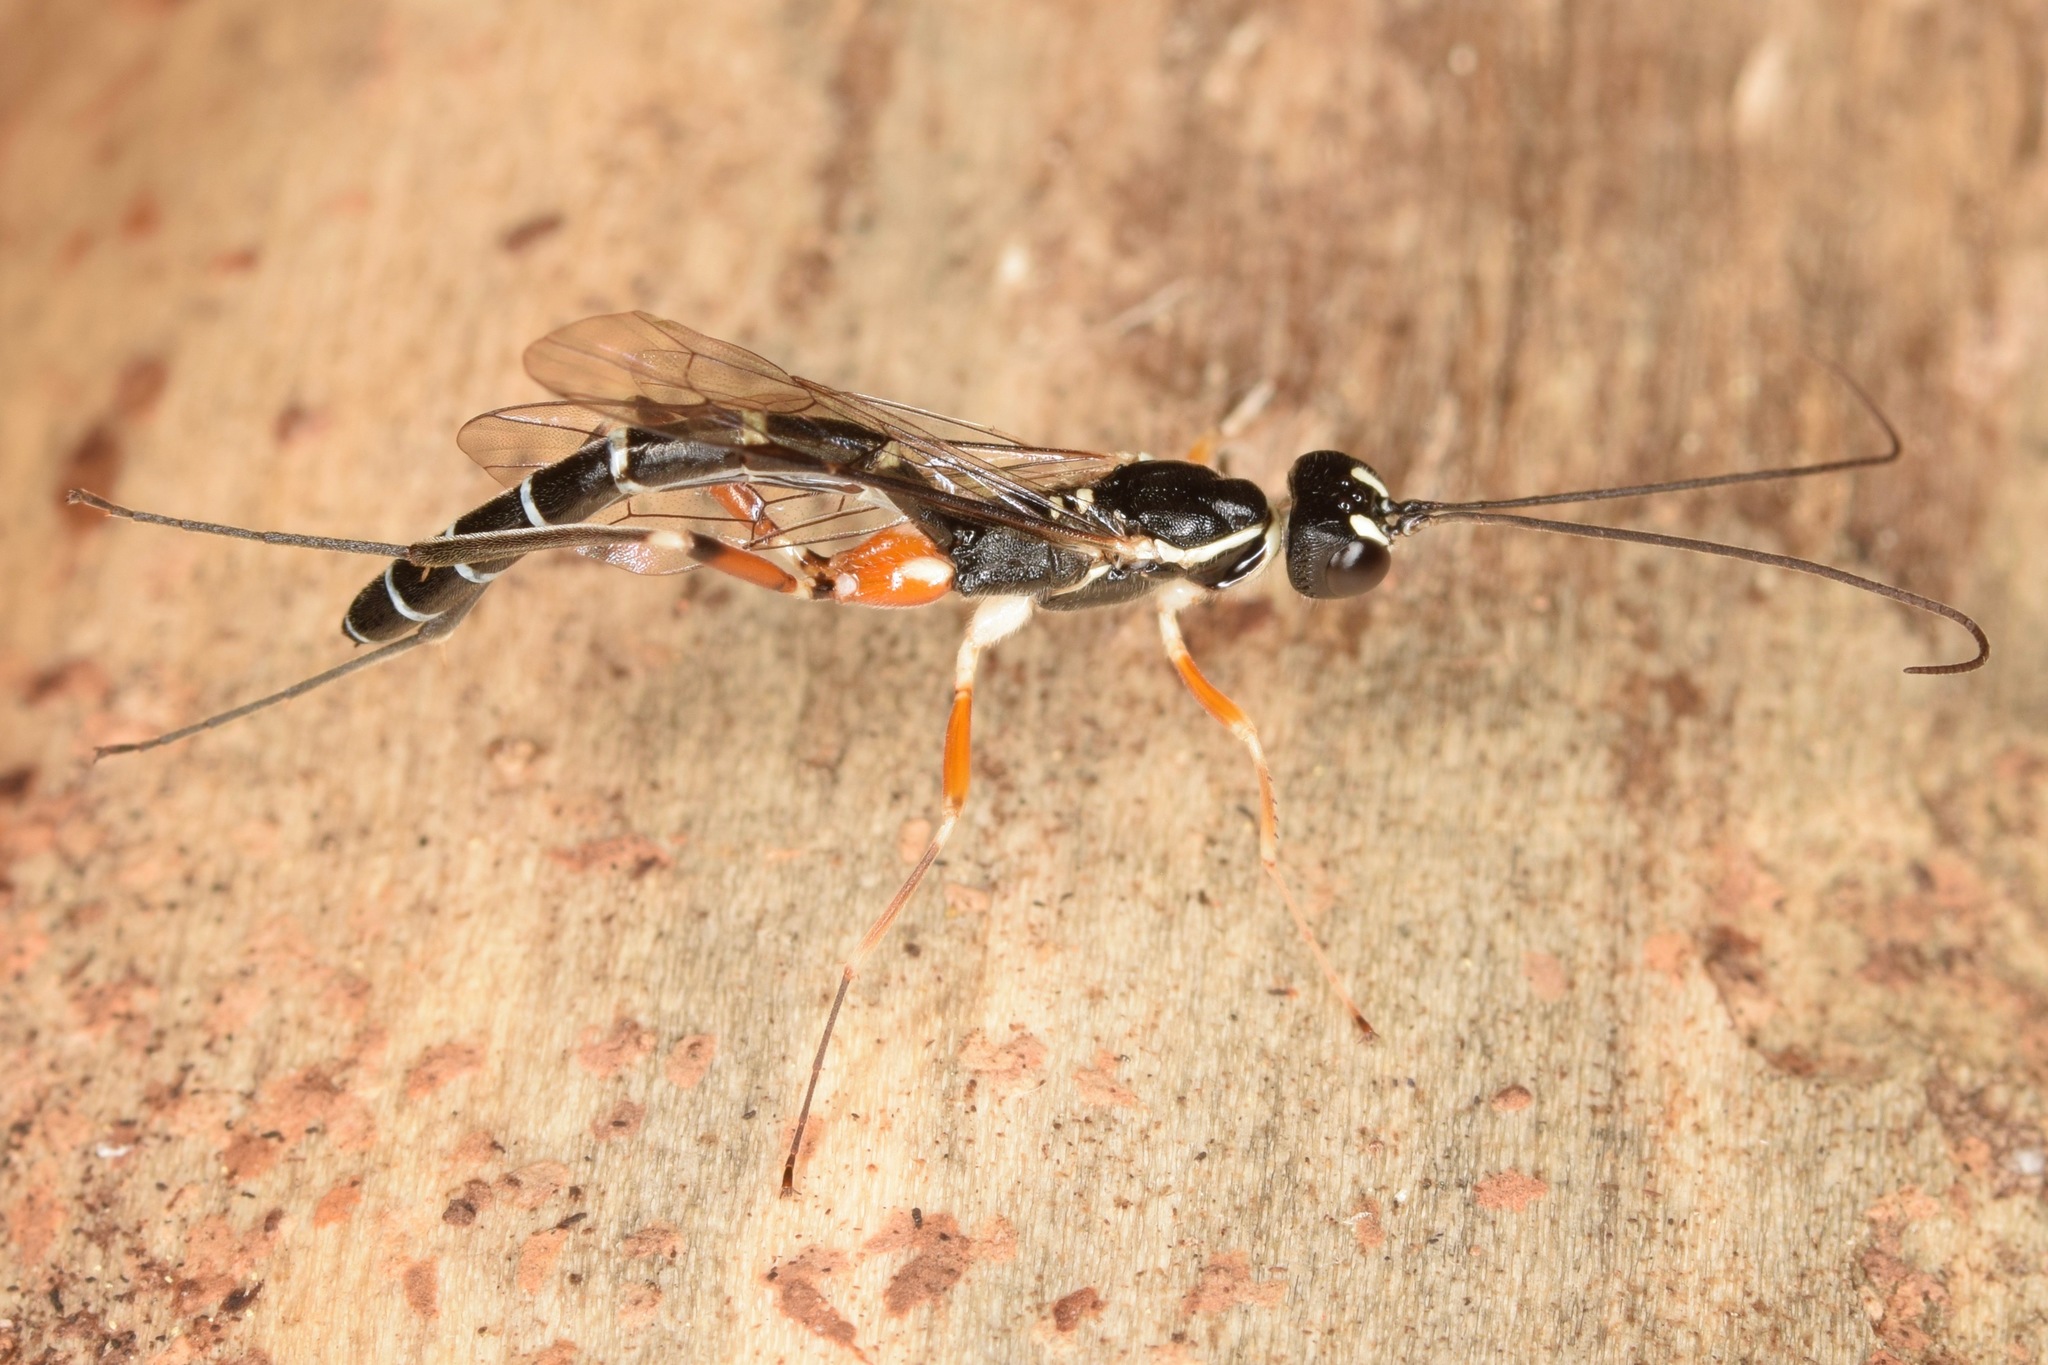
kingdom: Animalia
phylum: Arthropoda
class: Insecta
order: Hymenoptera
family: Ichneumonidae
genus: Podoschistus
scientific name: Podoschistus vittifrons
